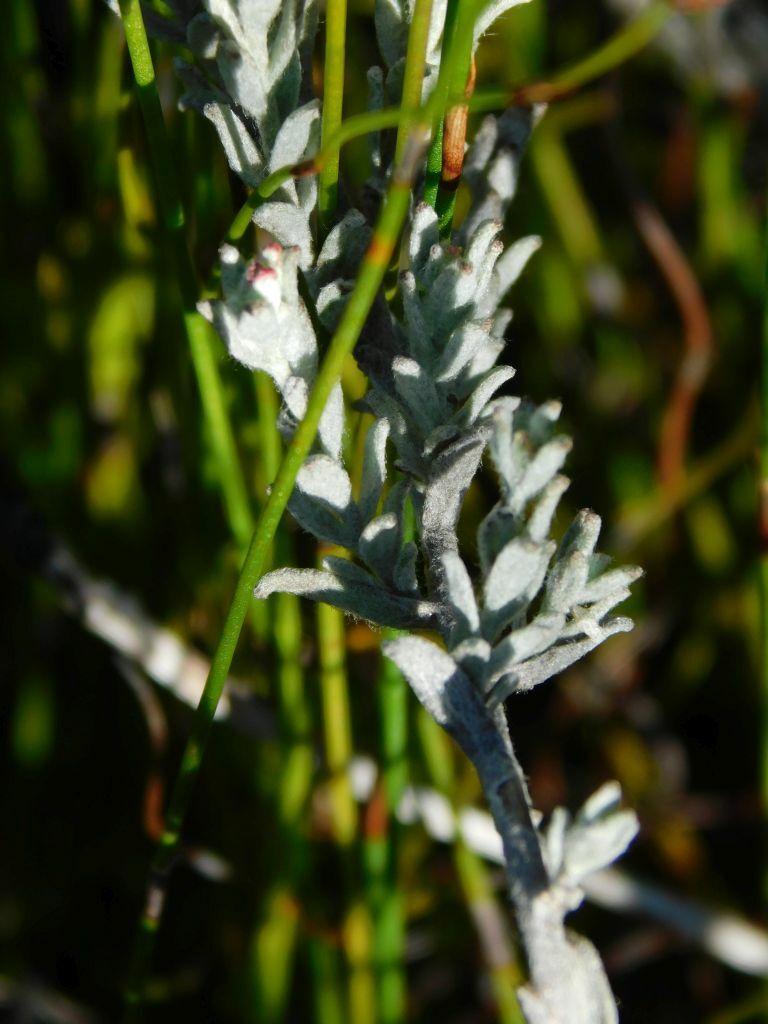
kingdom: Plantae
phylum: Tracheophyta
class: Magnoliopsida
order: Asterales
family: Asteraceae
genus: Syncarpha
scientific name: Syncarpha canescens
